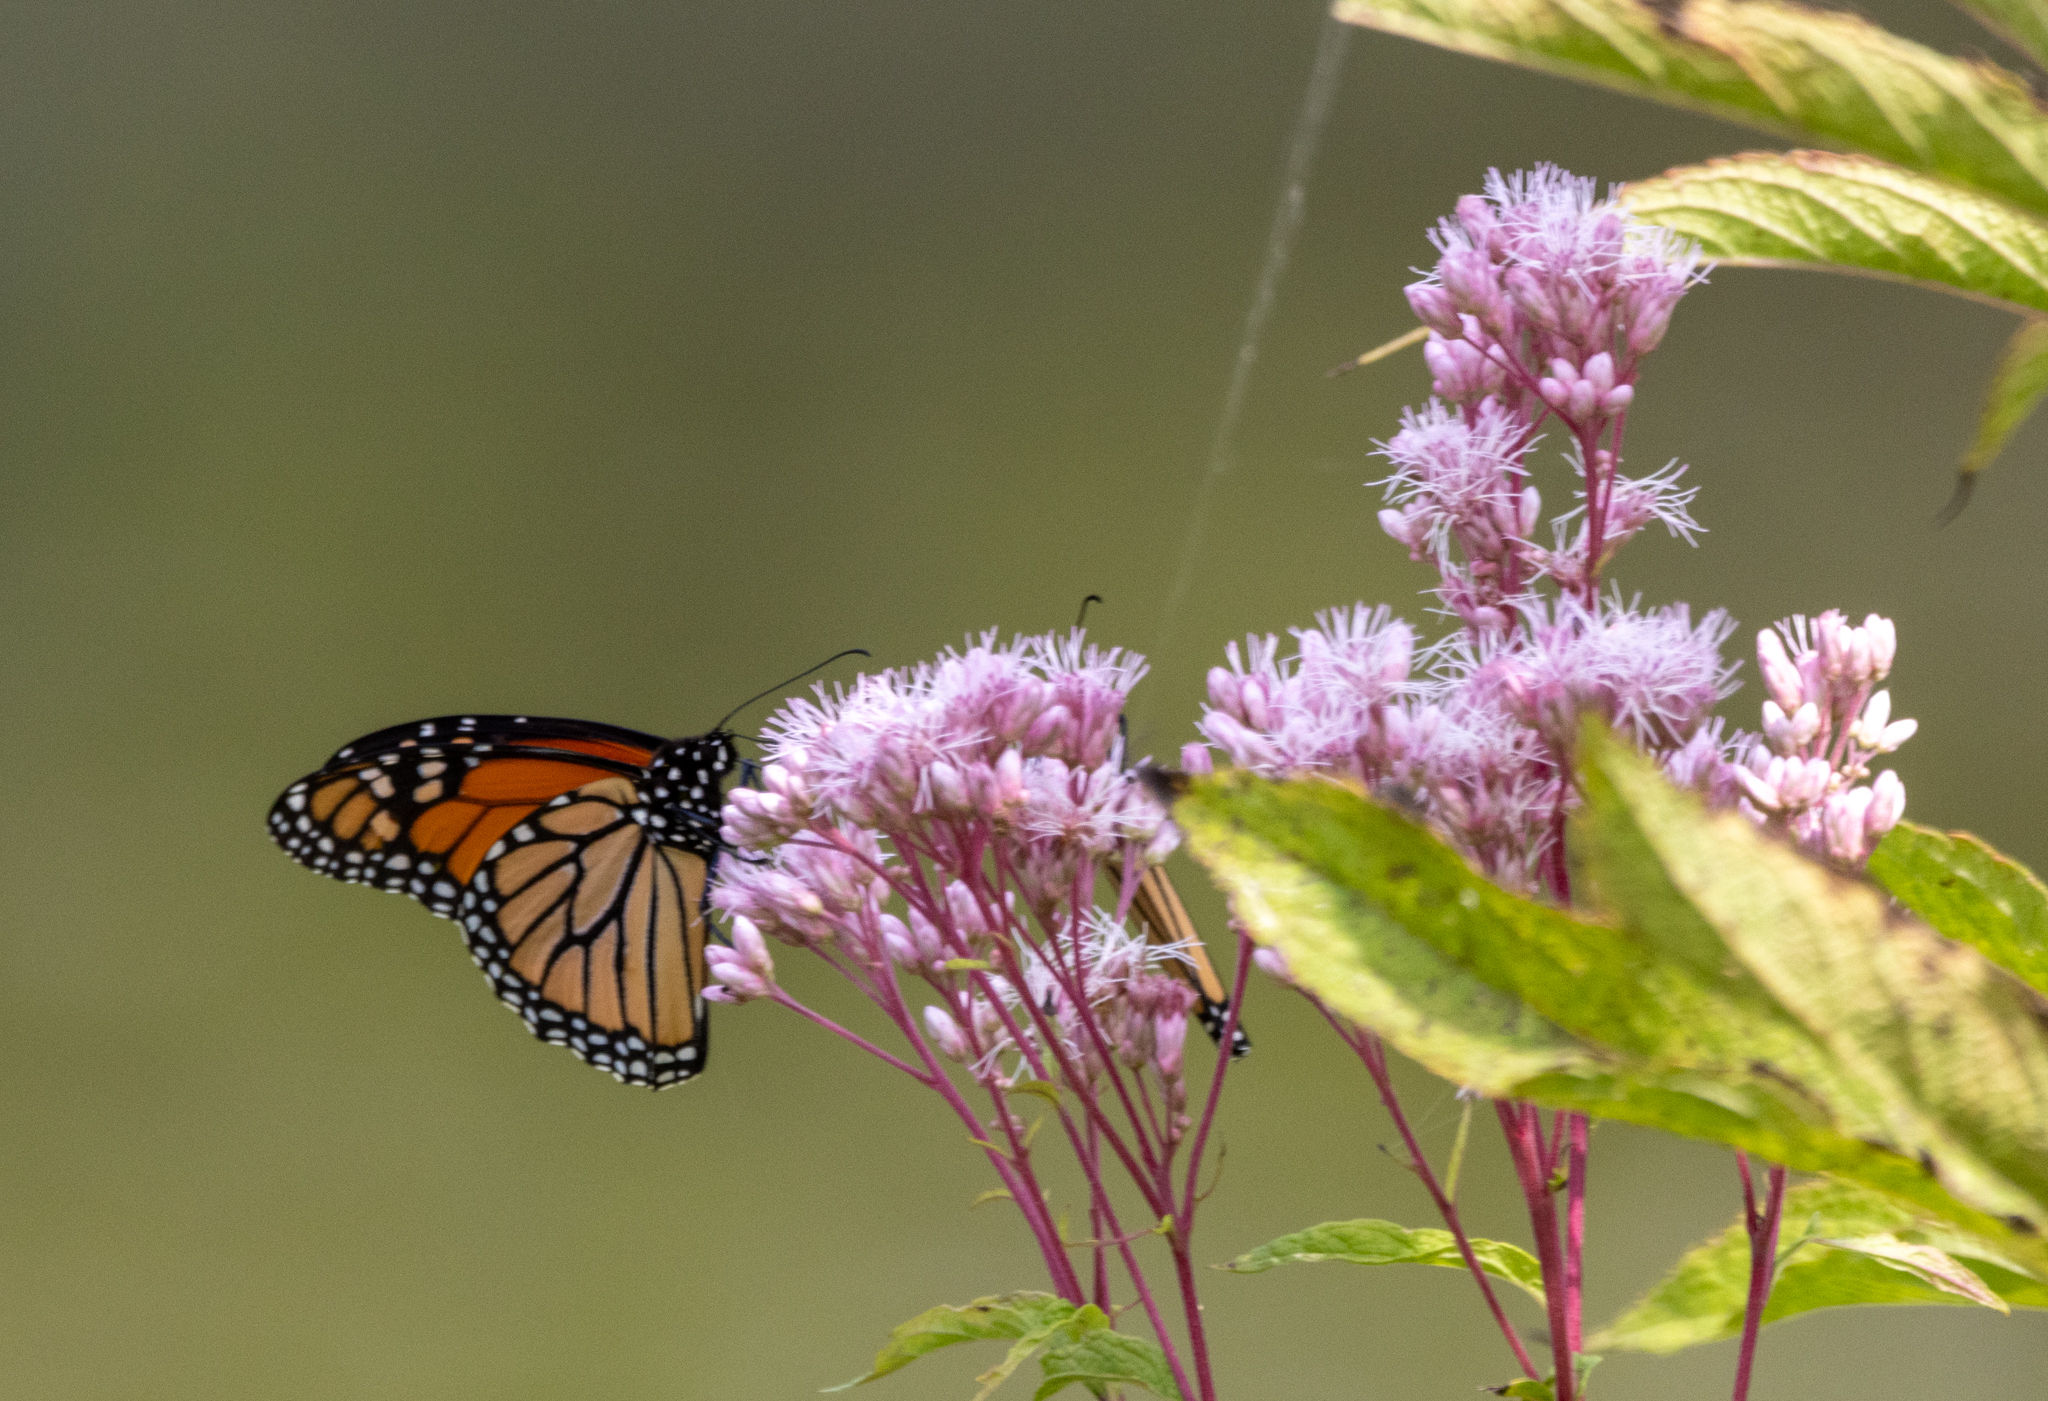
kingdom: Animalia
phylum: Arthropoda
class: Insecta
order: Lepidoptera
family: Nymphalidae
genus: Danaus
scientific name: Danaus plexippus
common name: Monarch
